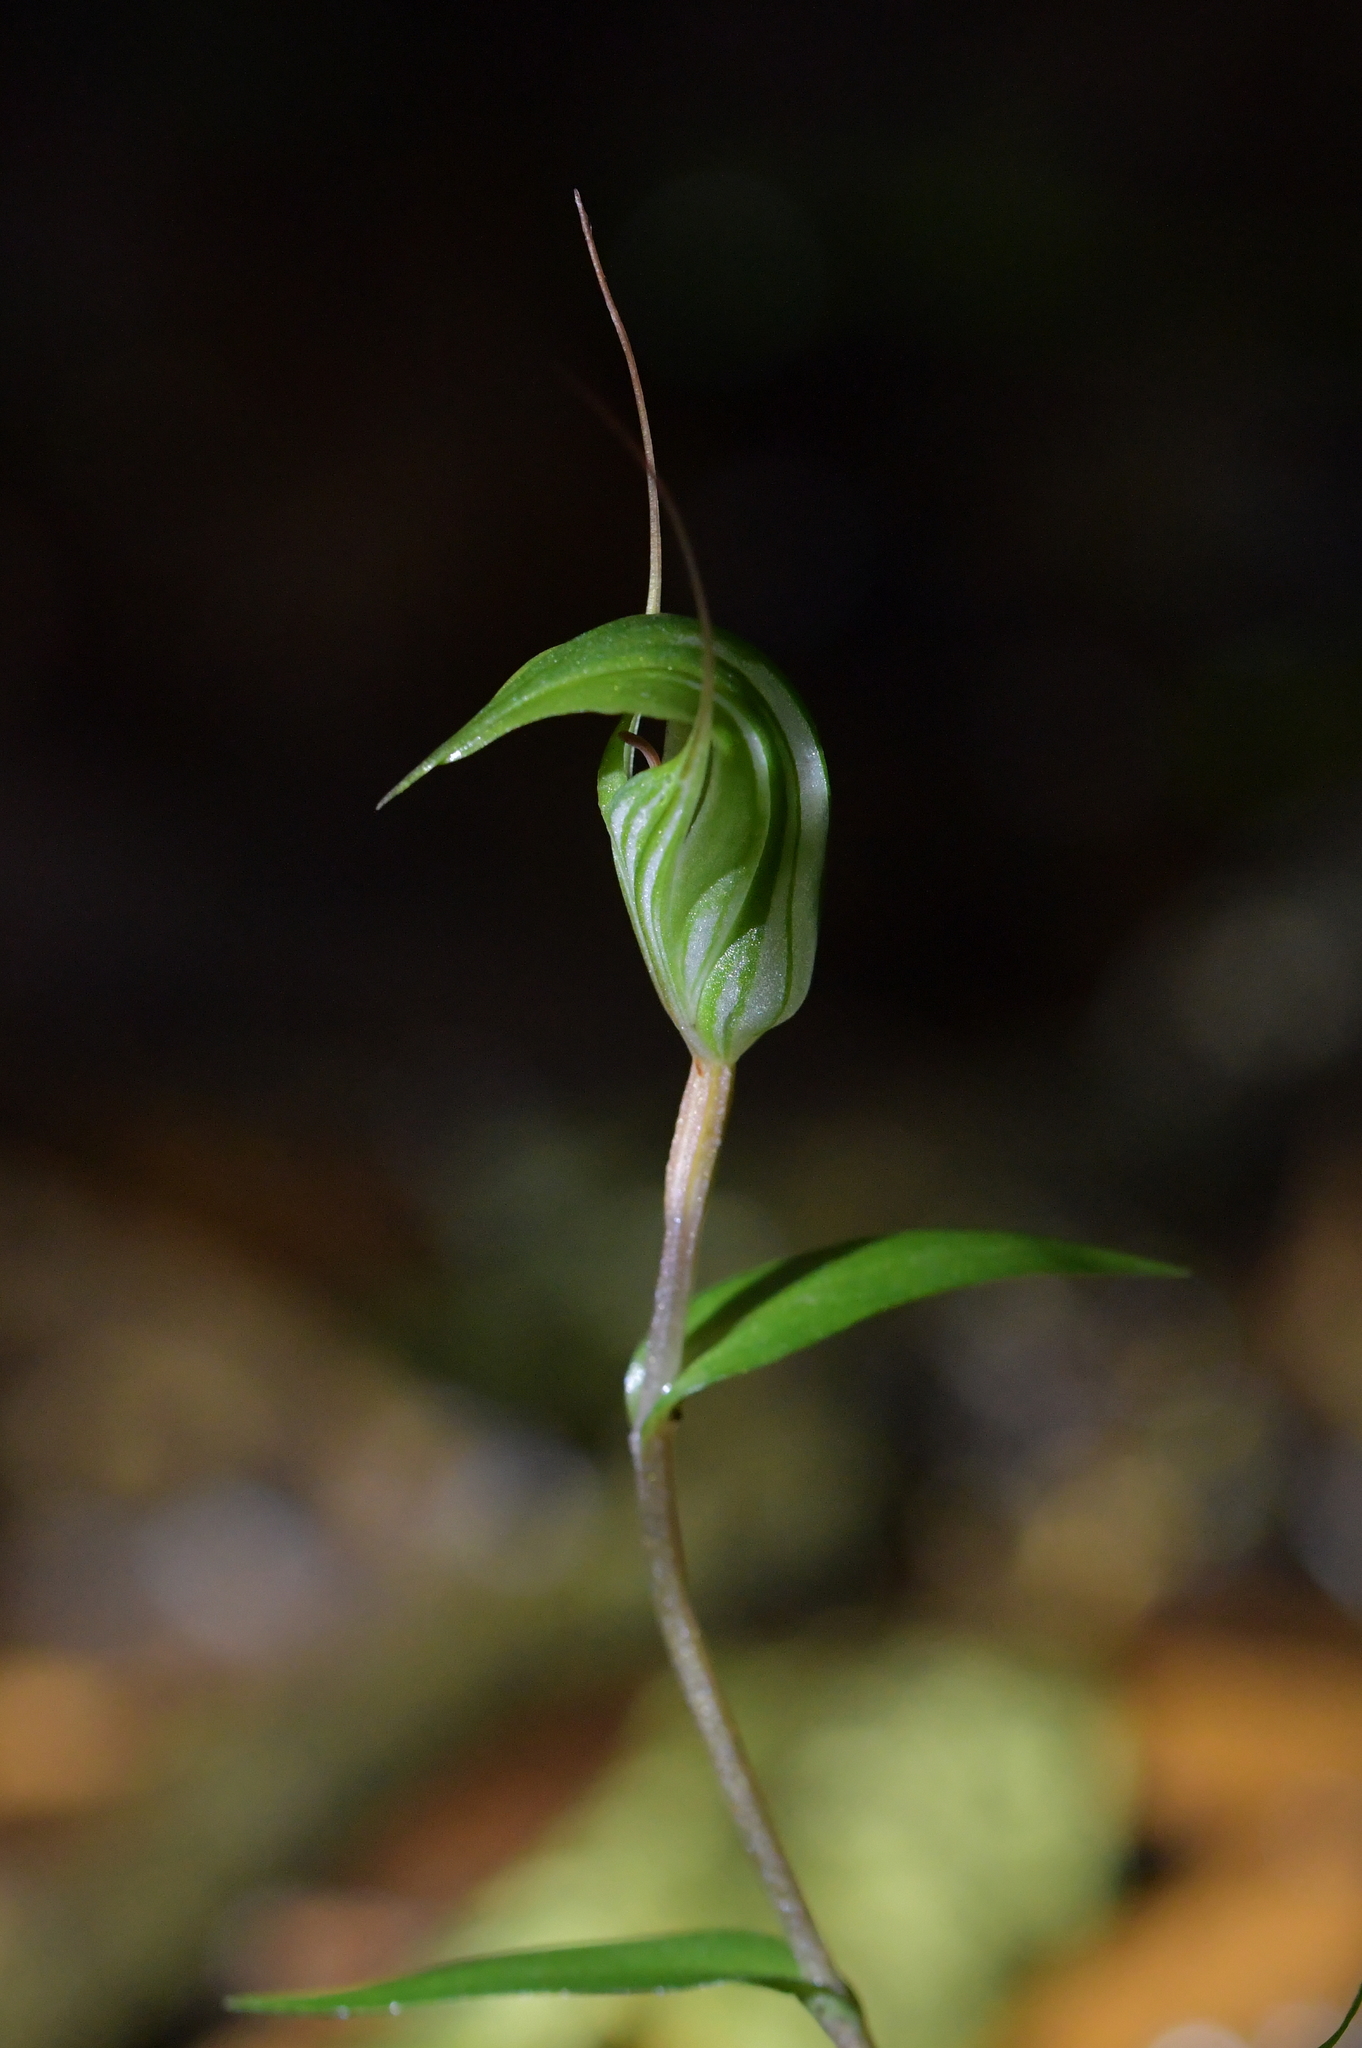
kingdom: Plantae
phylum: Tracheophyta
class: Liliopsida
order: Asparagales
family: Orchidaceae
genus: Pterostylis
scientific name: Pterostylis alobula
